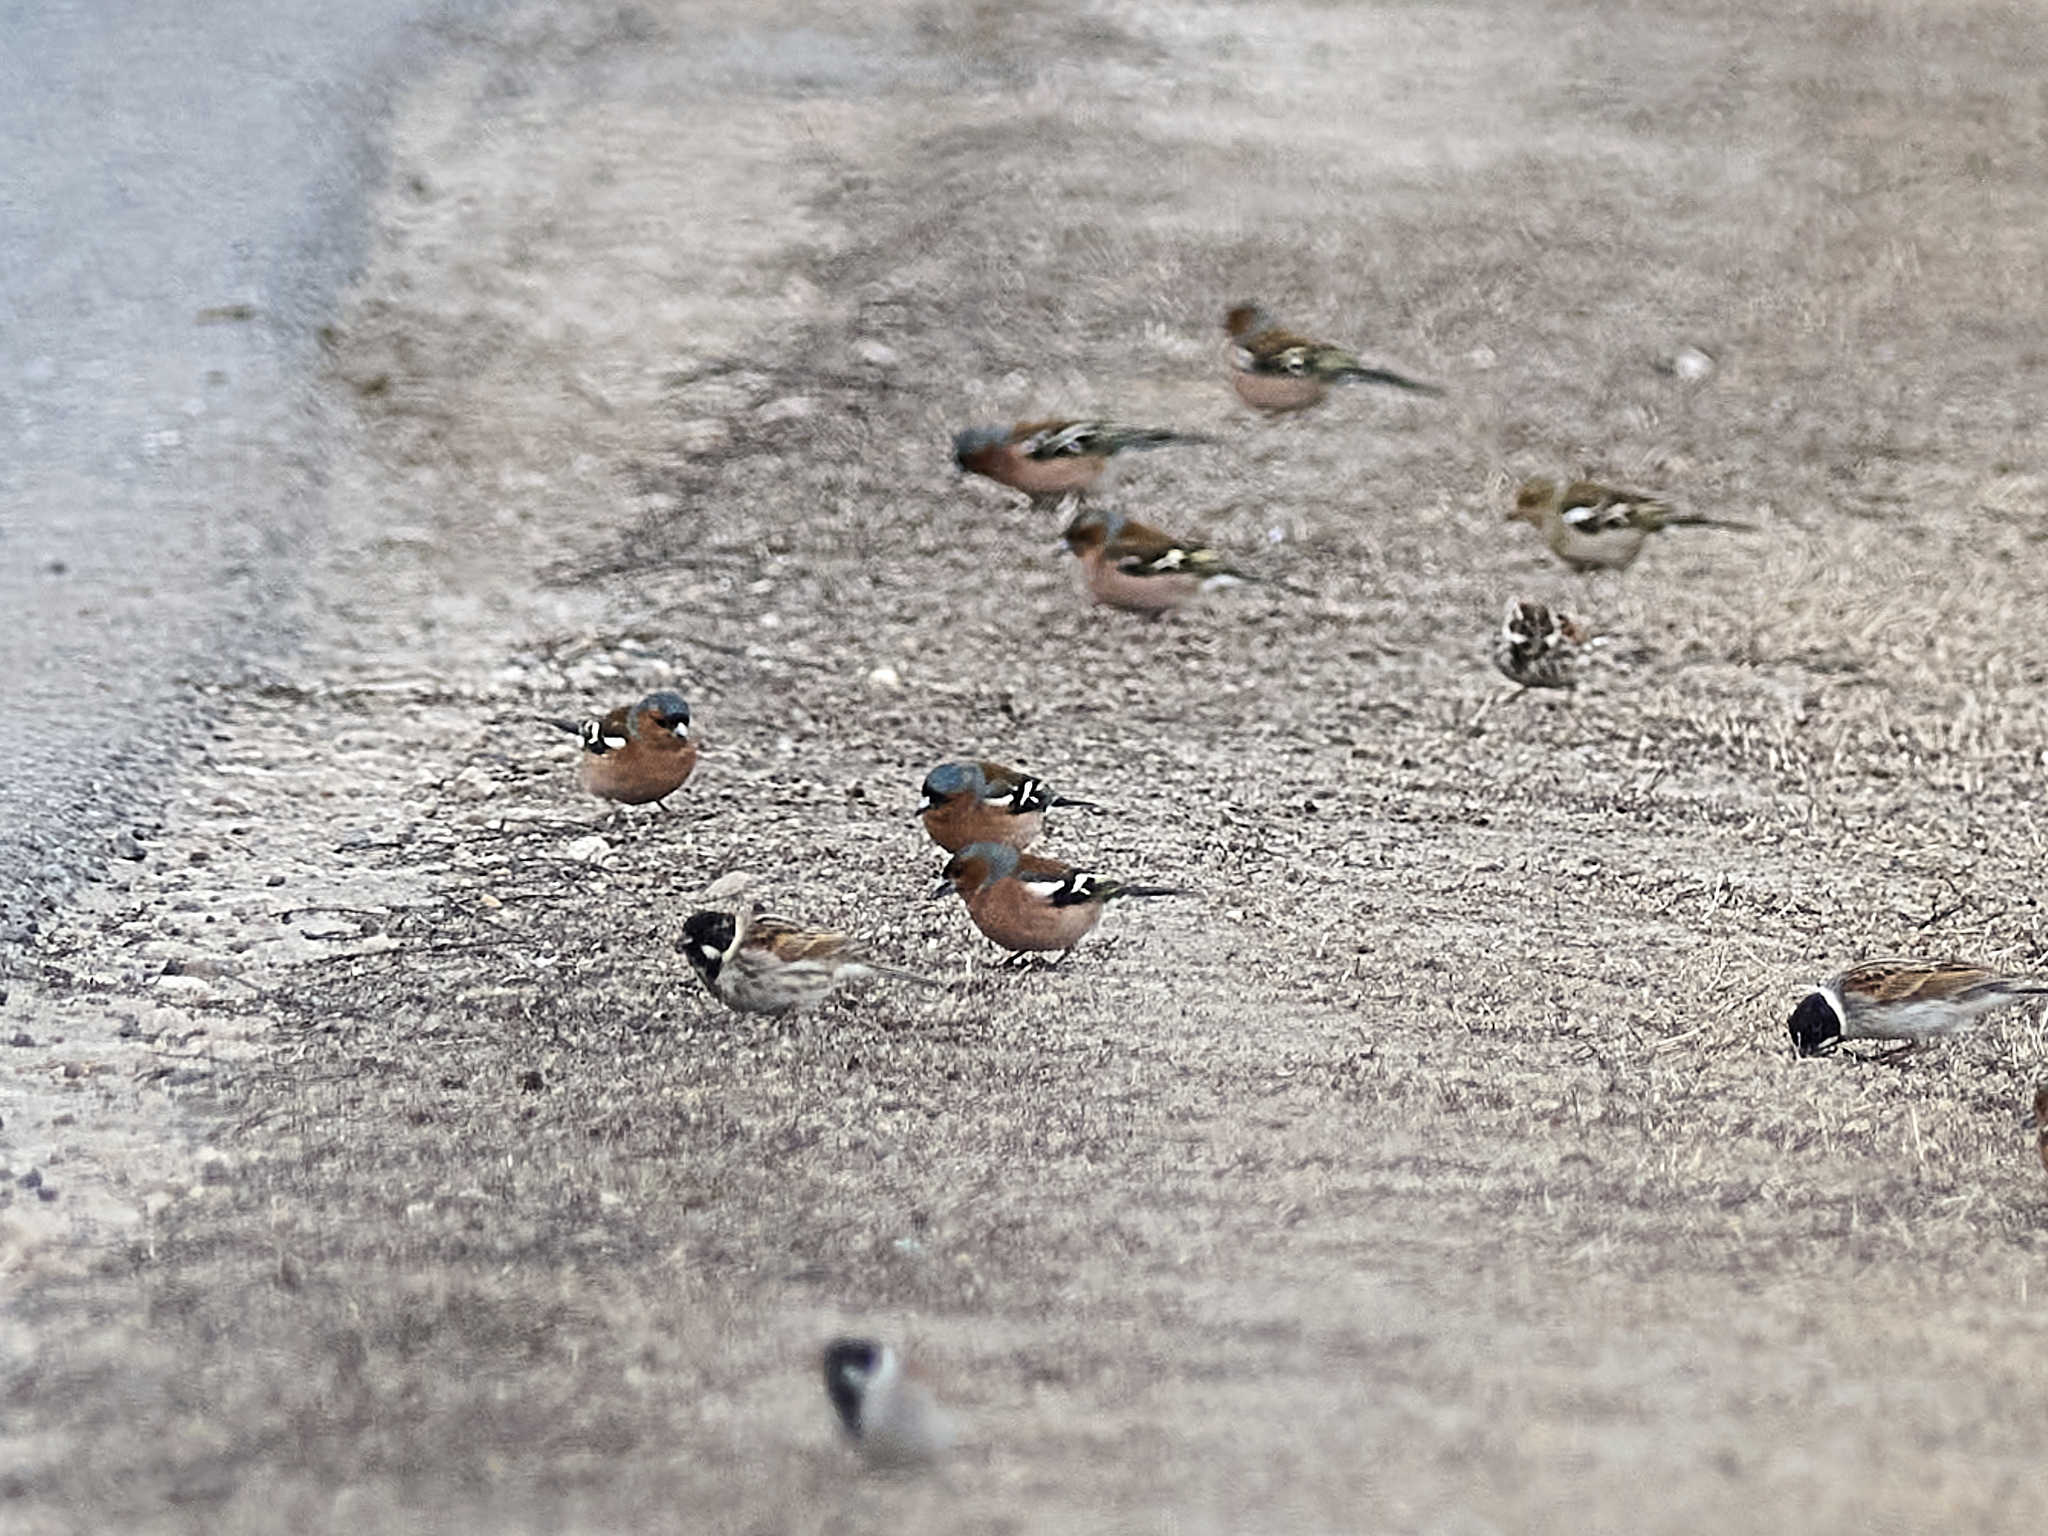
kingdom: Animalia
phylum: Chordata
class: Aves
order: Passeriformes
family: Fringillidae
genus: Fringilla
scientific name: Fringilla coelebs
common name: Common chaffinch
